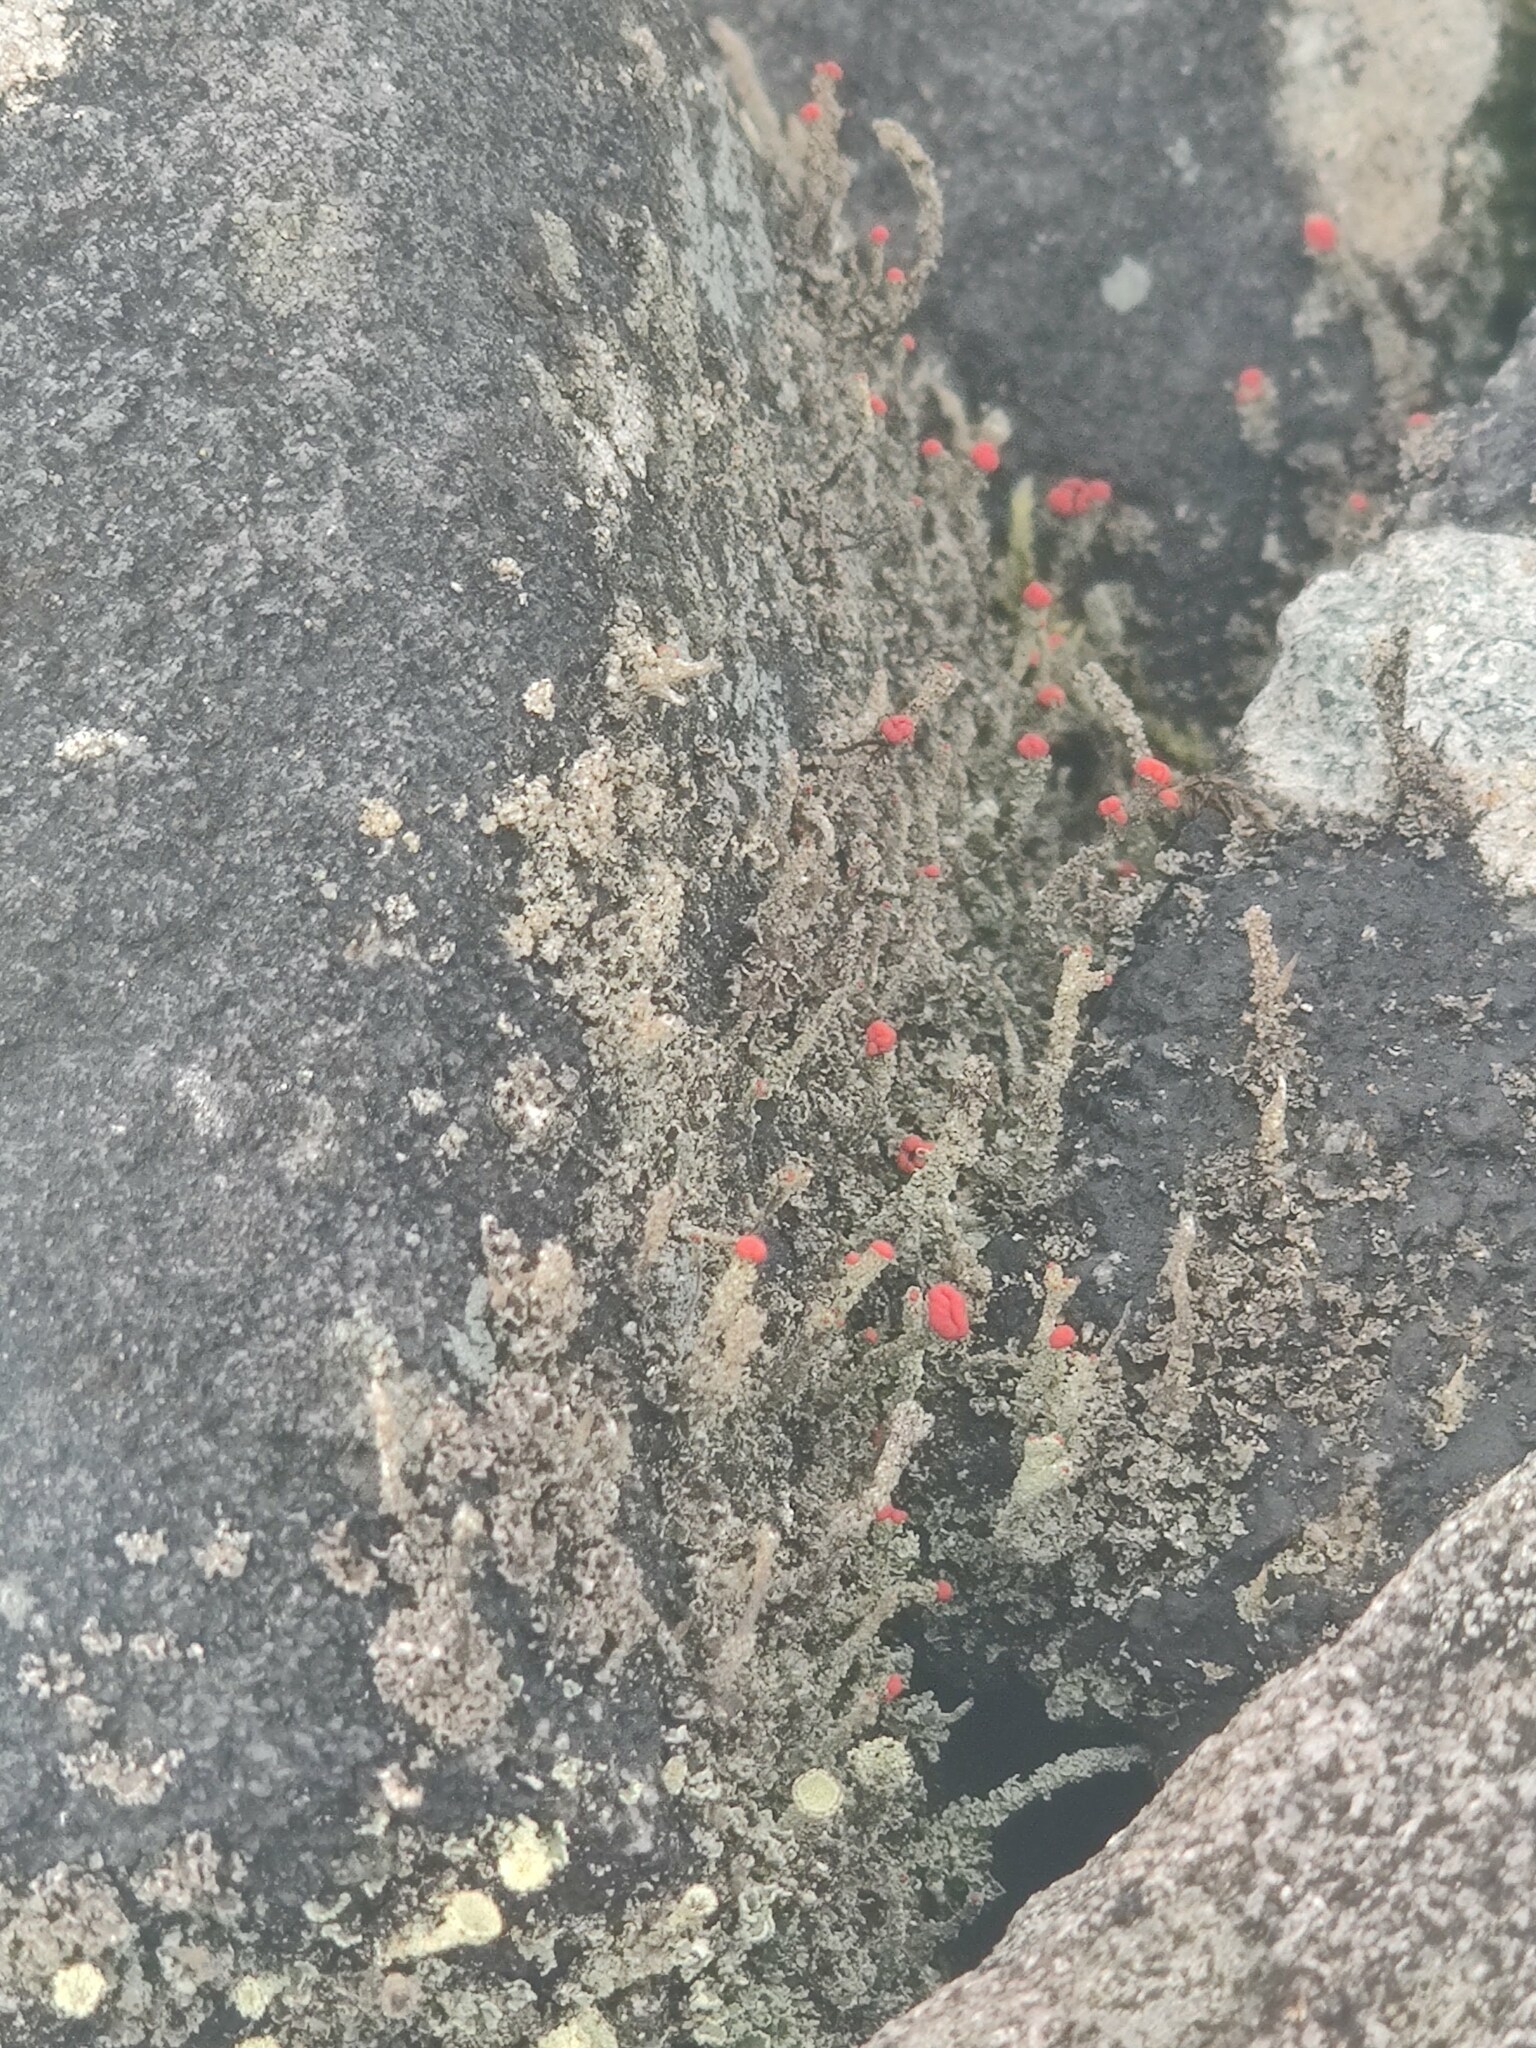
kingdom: Fungi
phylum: Ascomycota
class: Lecanoromycetes
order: Lecanorales
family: Cladoniaceae
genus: Cladonia
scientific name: Cladonia floerkeana
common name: Gritty british soldiers lichen
